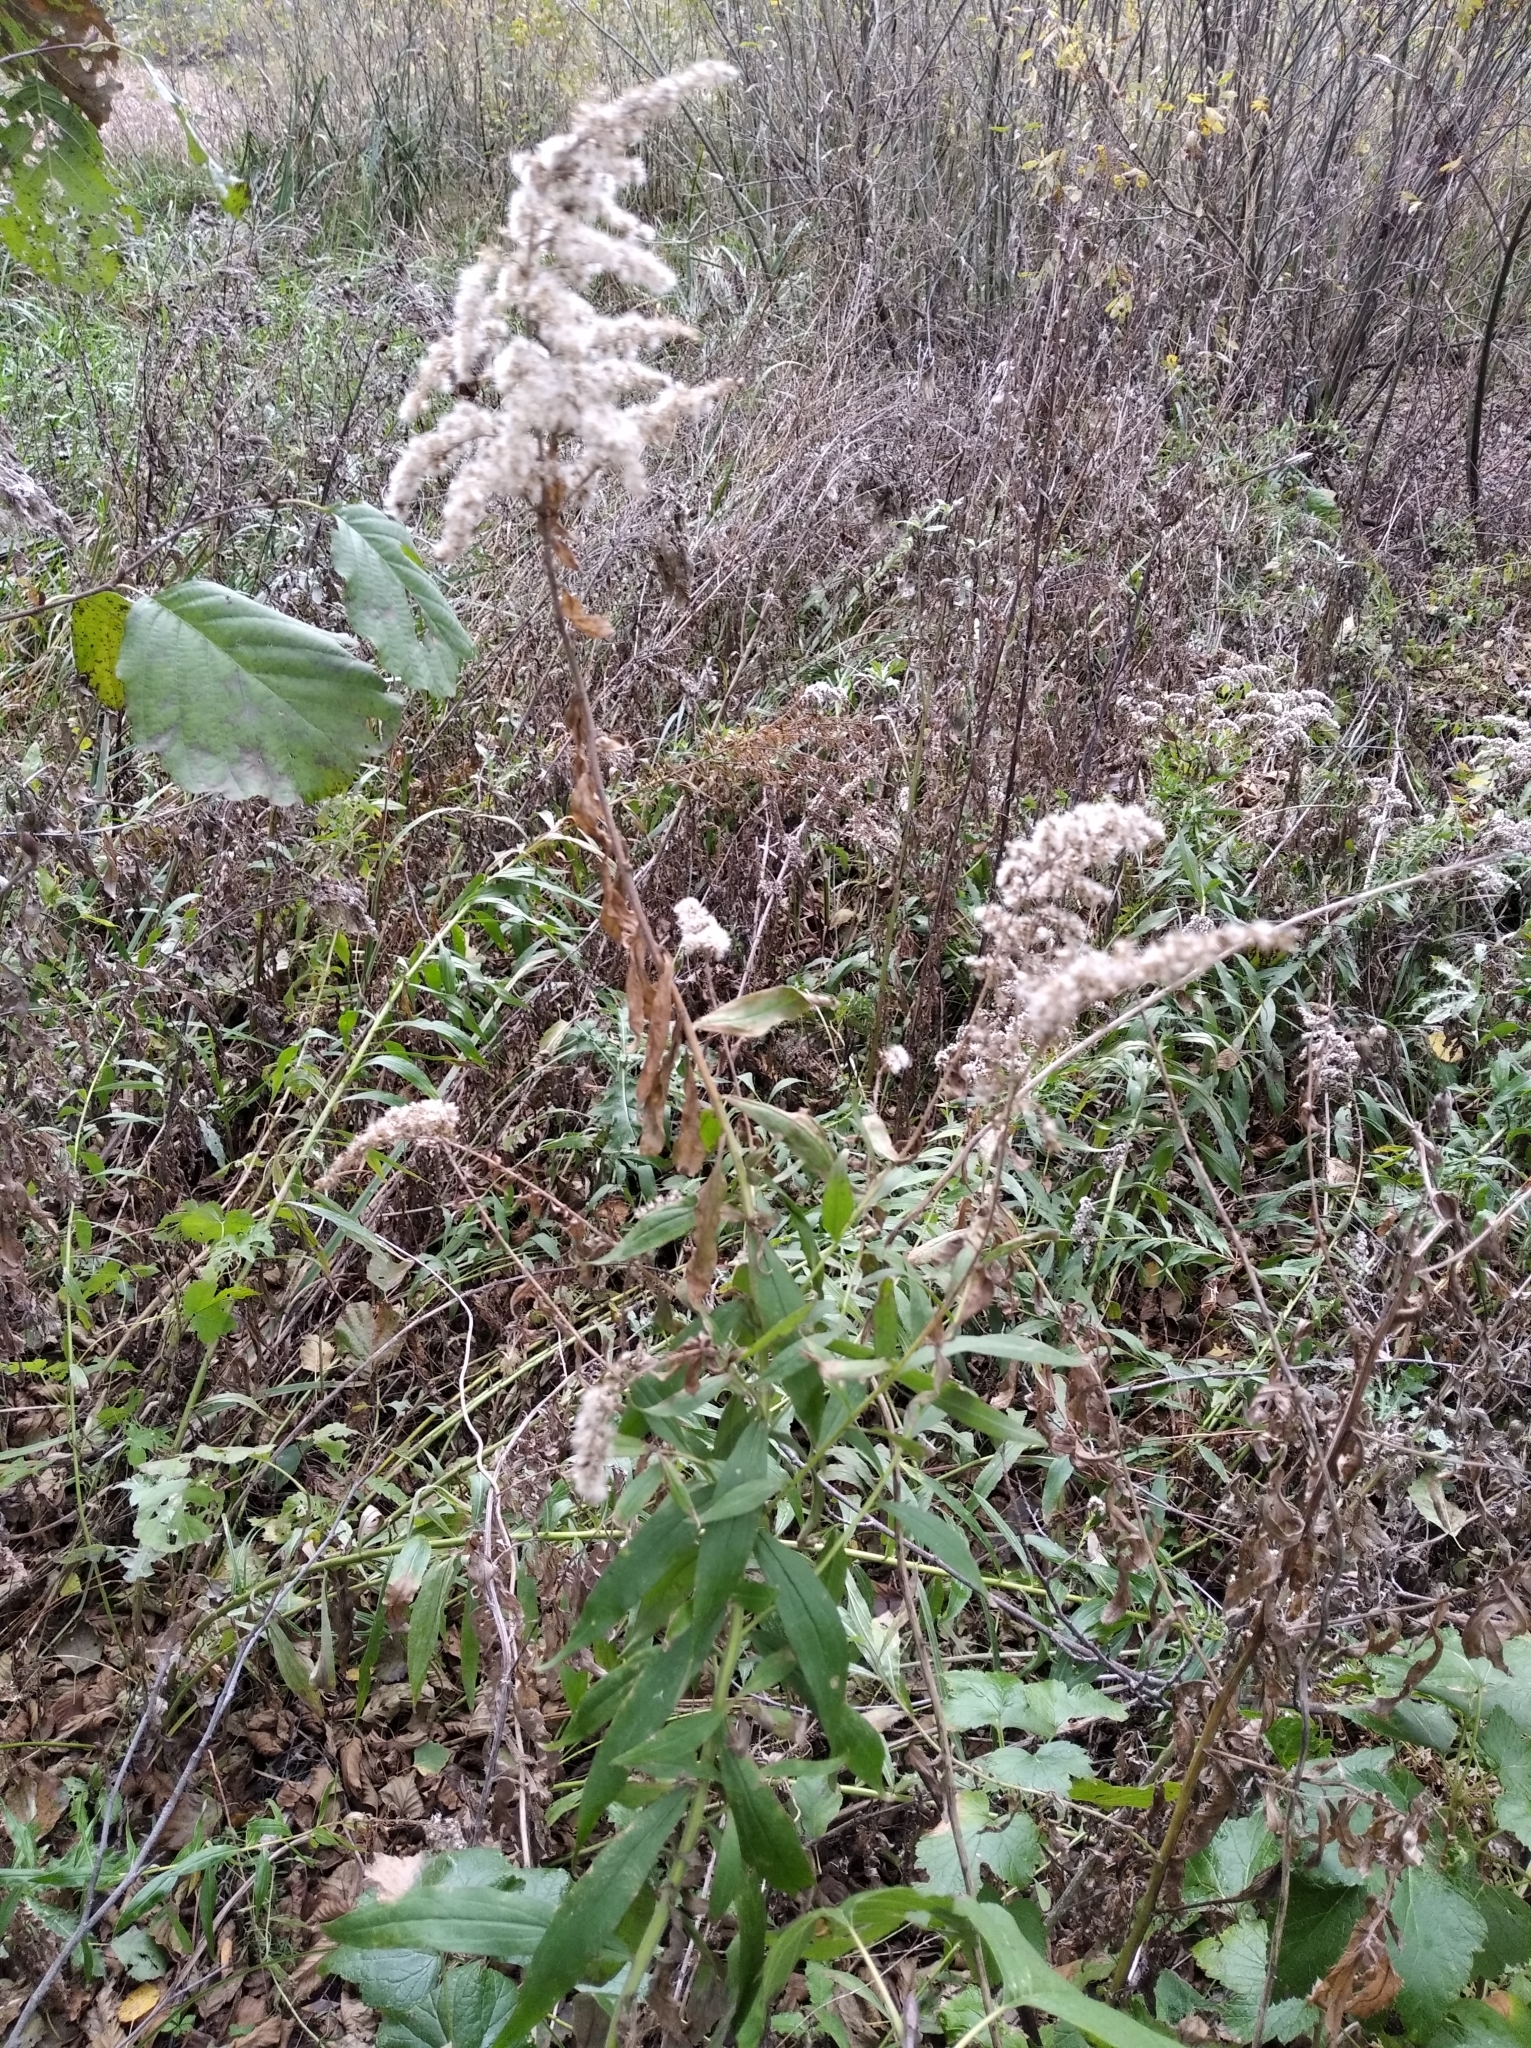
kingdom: Plantae
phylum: Tracheophyta
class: Magnoliopsida
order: Asterales
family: Asteraceae
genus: Solidago
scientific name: Solidago canadensis
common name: Canada goldenrod
